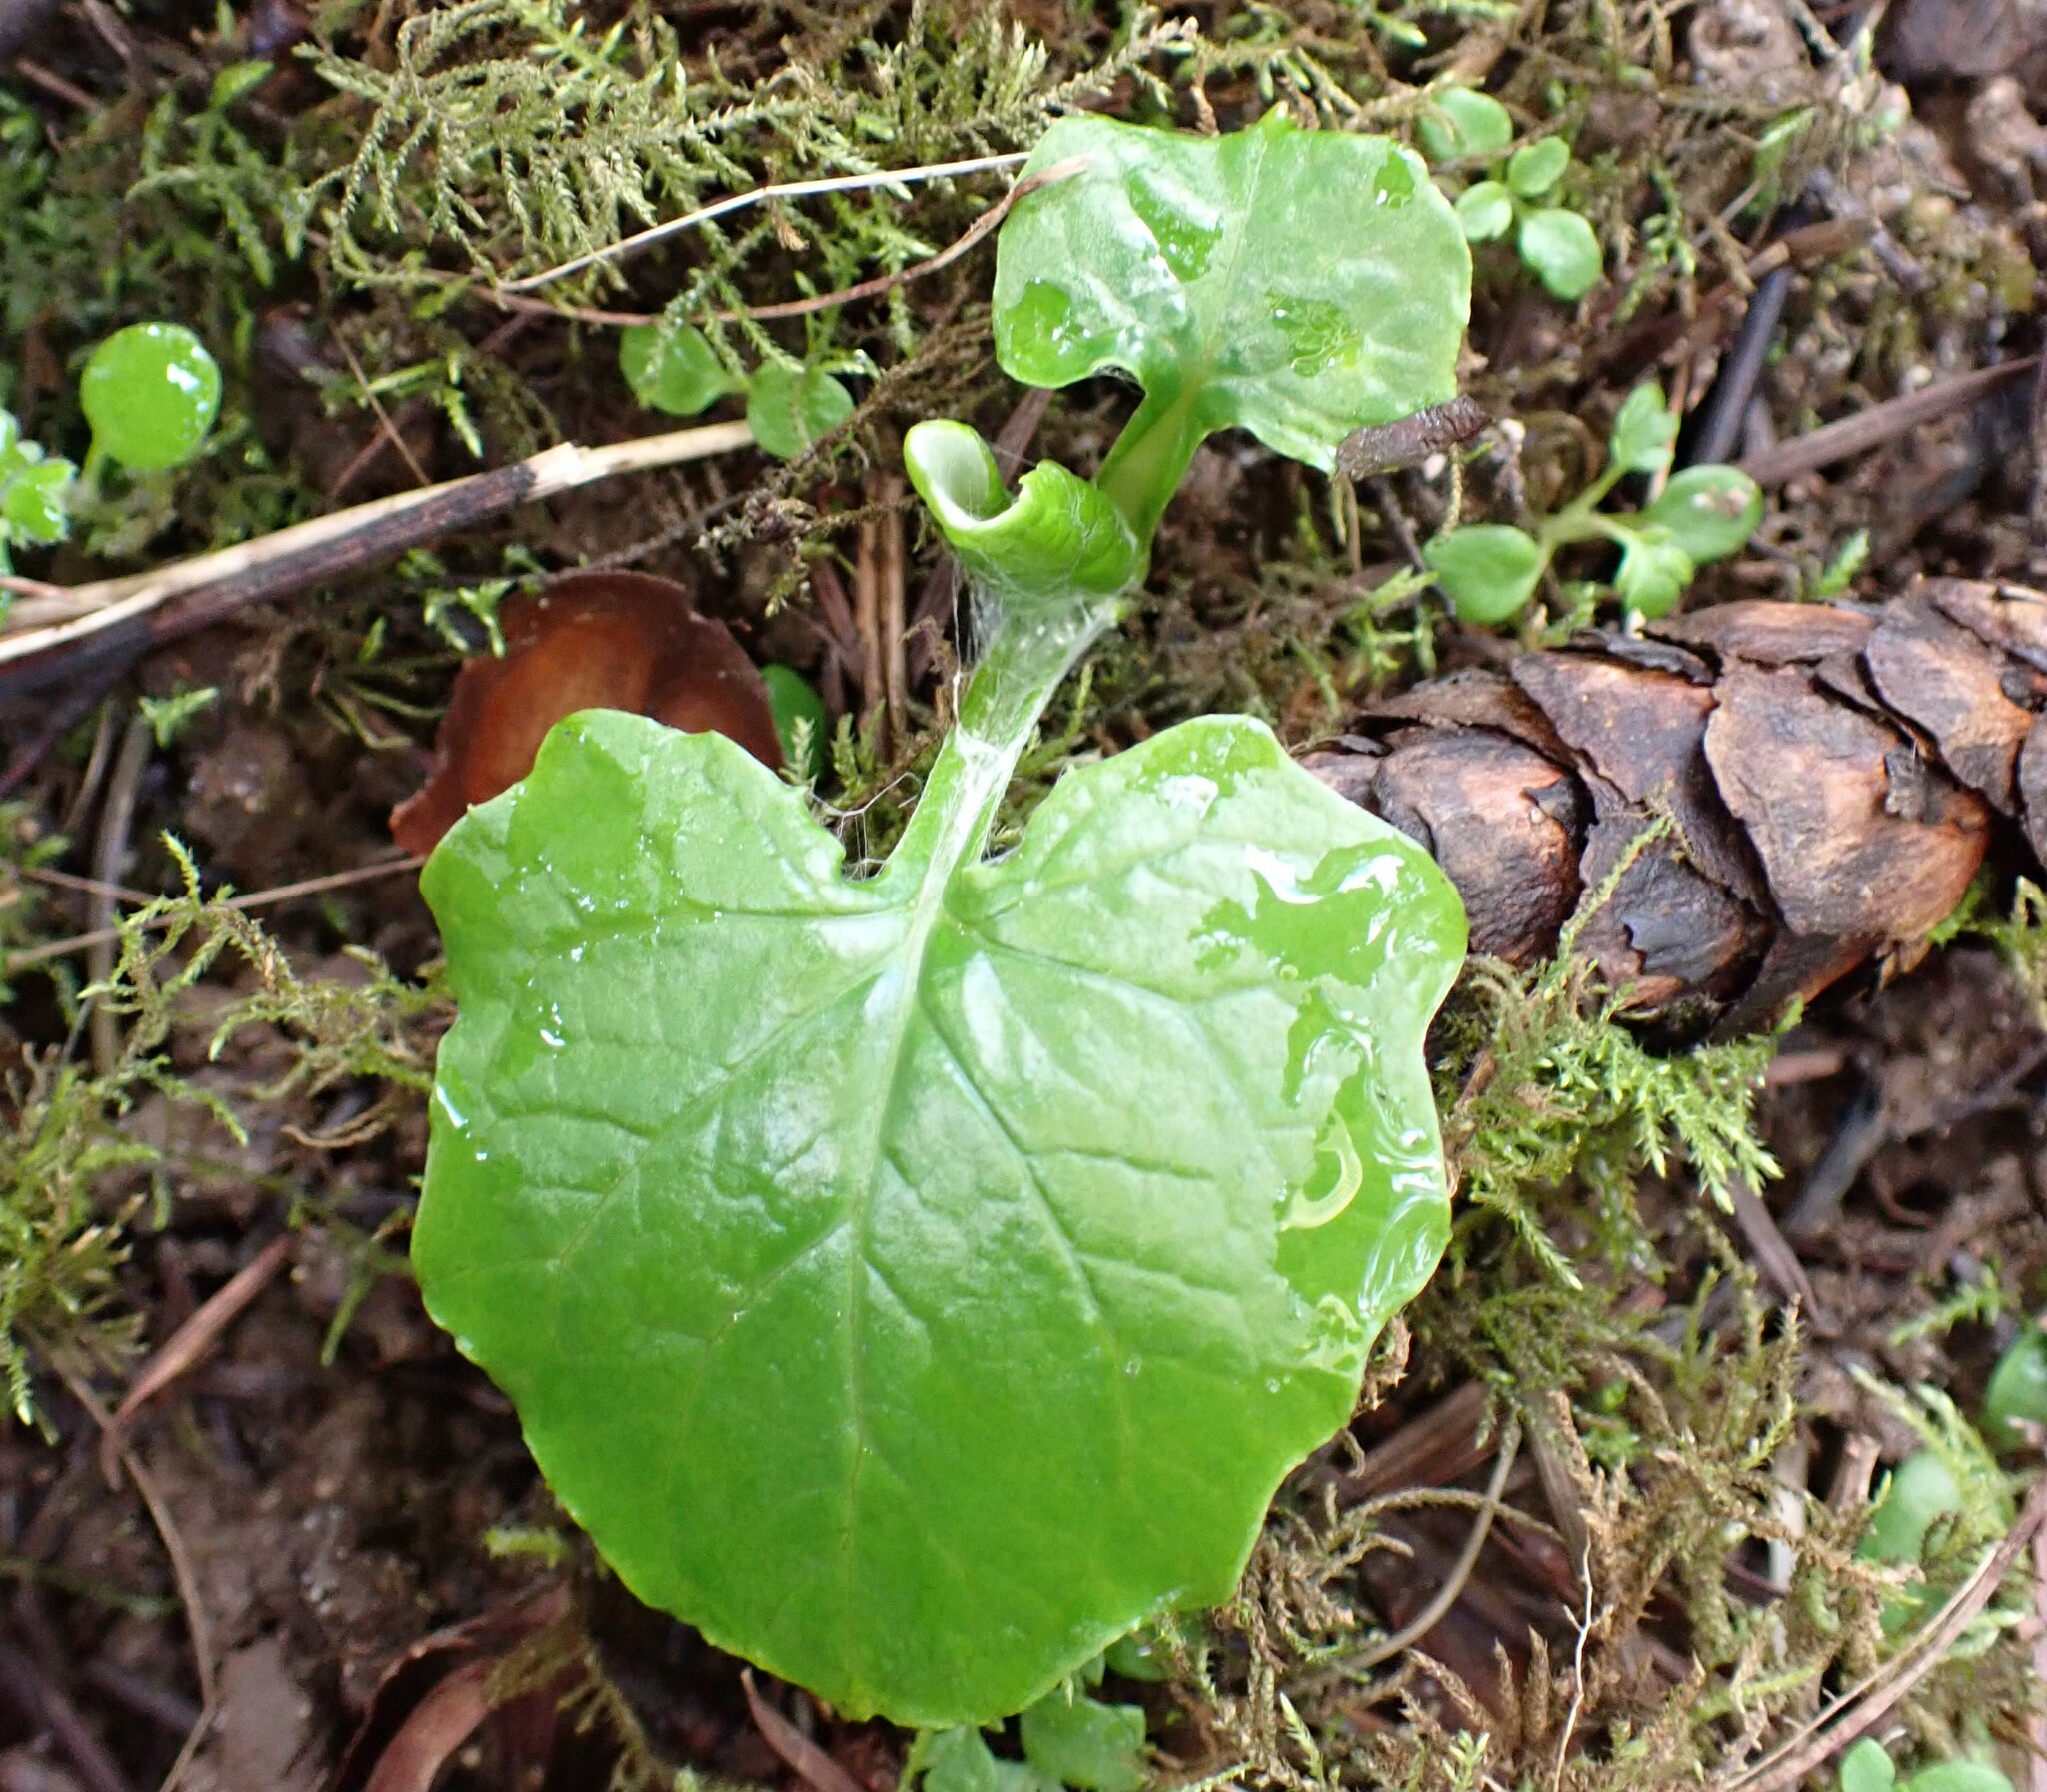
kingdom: Plantae
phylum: Tracheophyta
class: Magnoliopsida
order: Asterales
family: Asteraceae
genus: Adenocaulon
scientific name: Adenocaulon bicolor
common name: Trailplant
